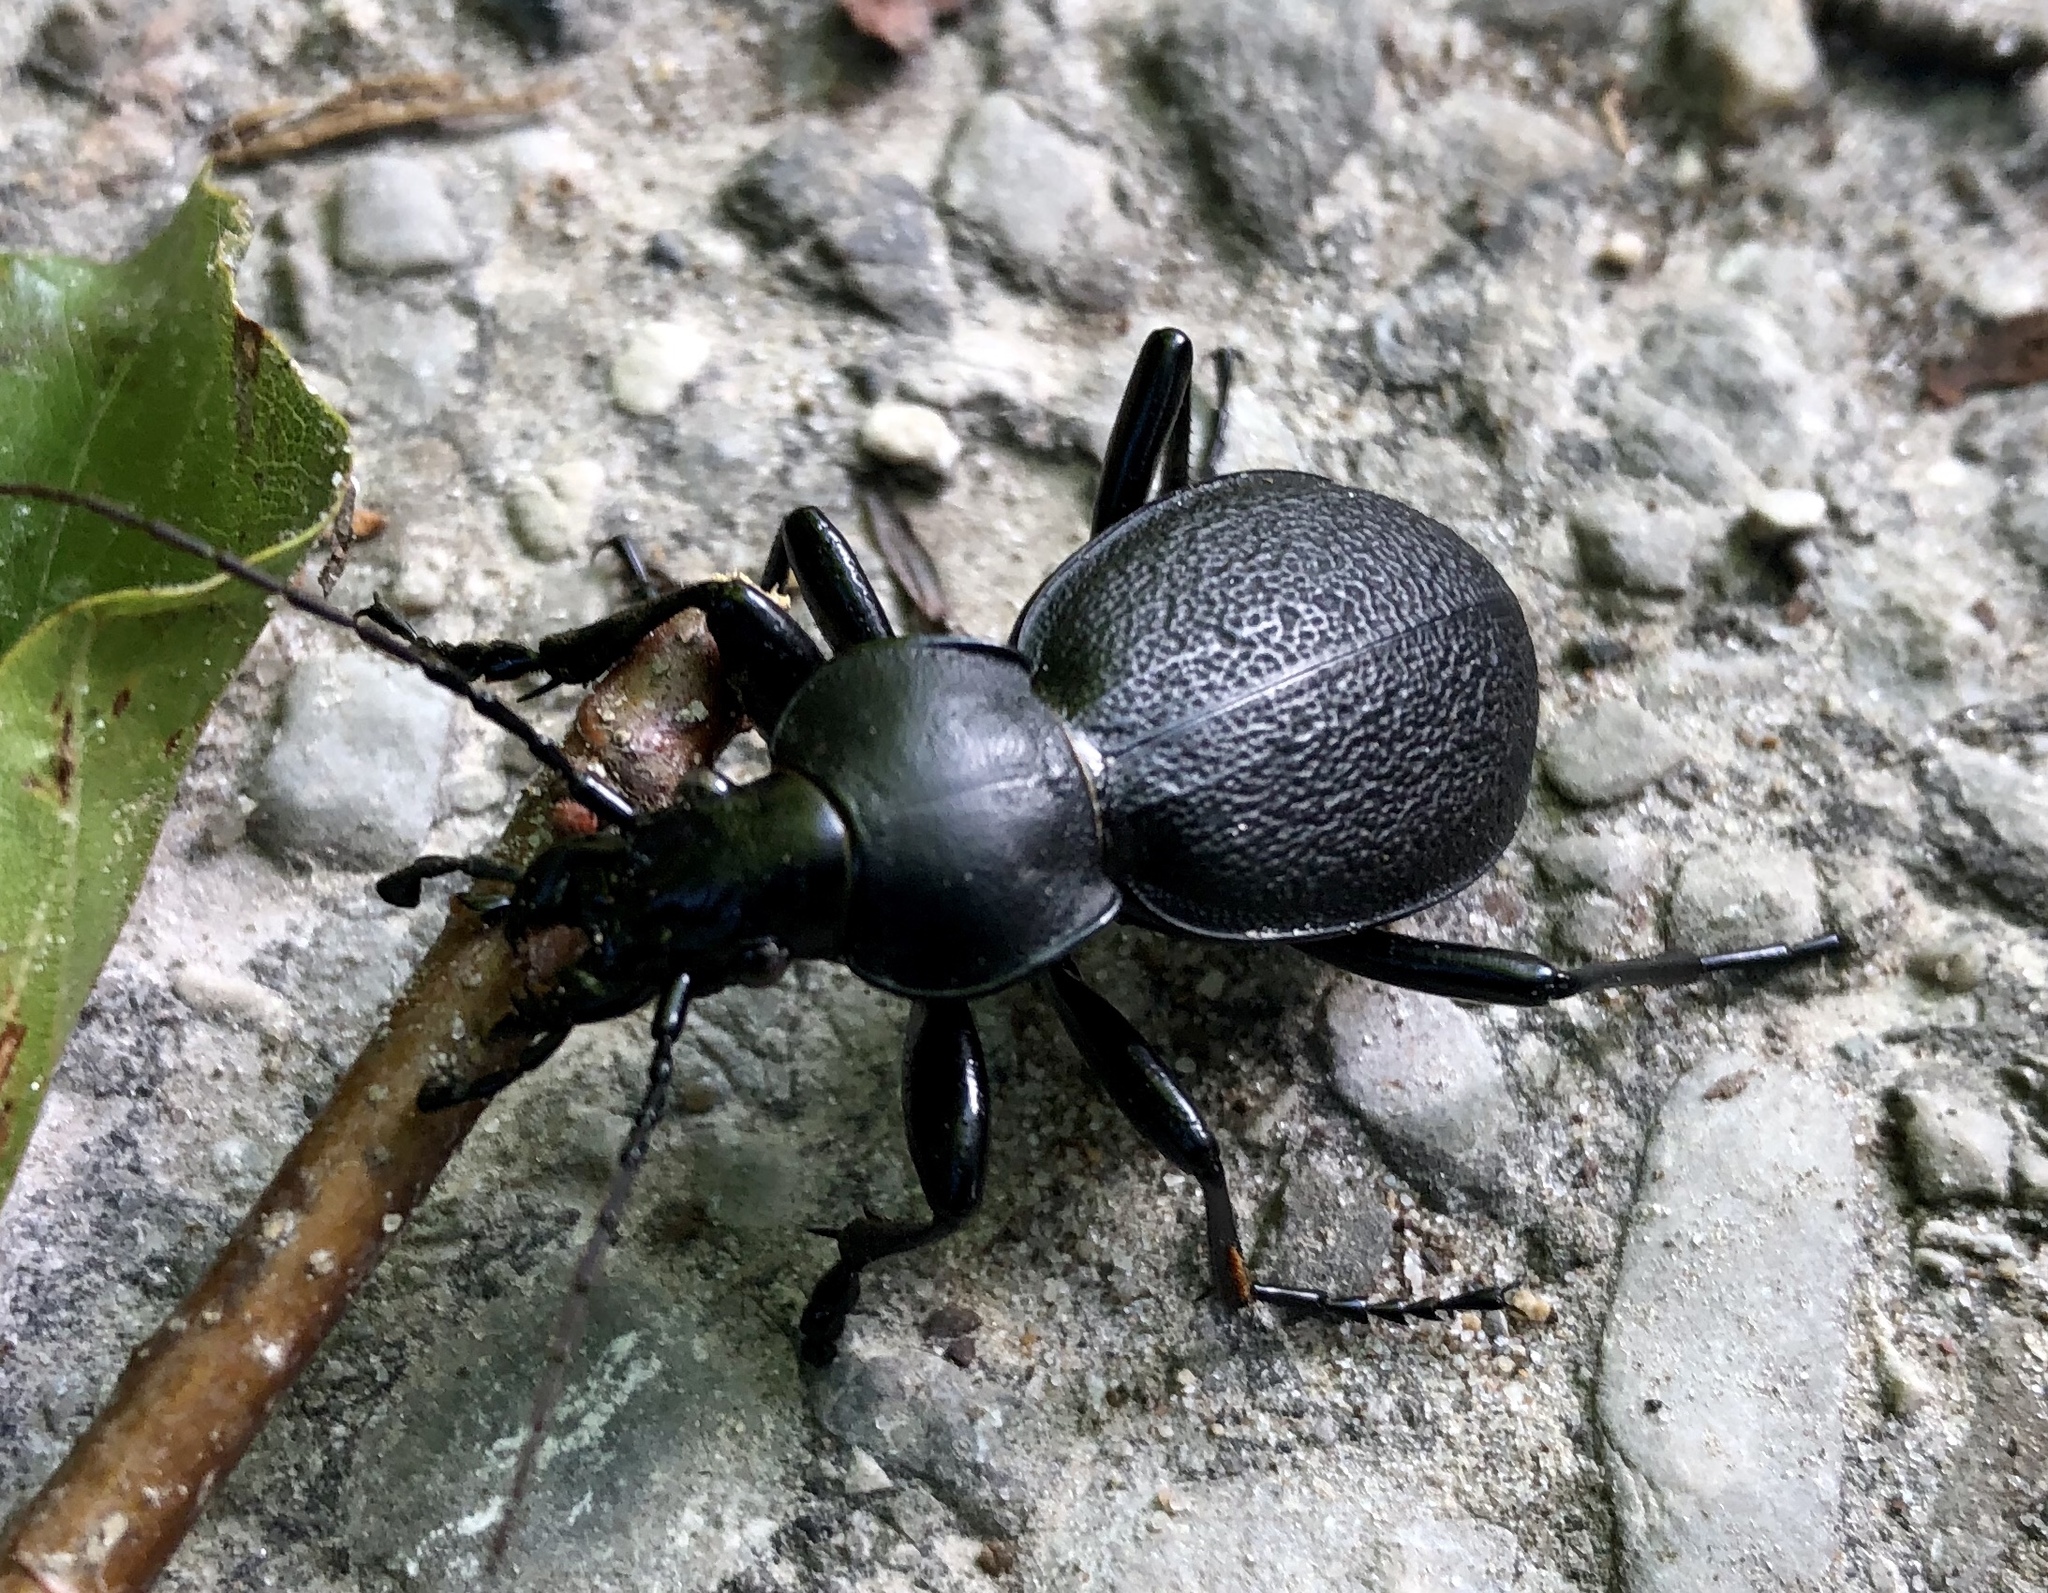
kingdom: Animalia
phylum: Arthropoda
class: Insecta
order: Coleoptera
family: Carabidae
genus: Carabus
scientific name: Carabus coriaceus
